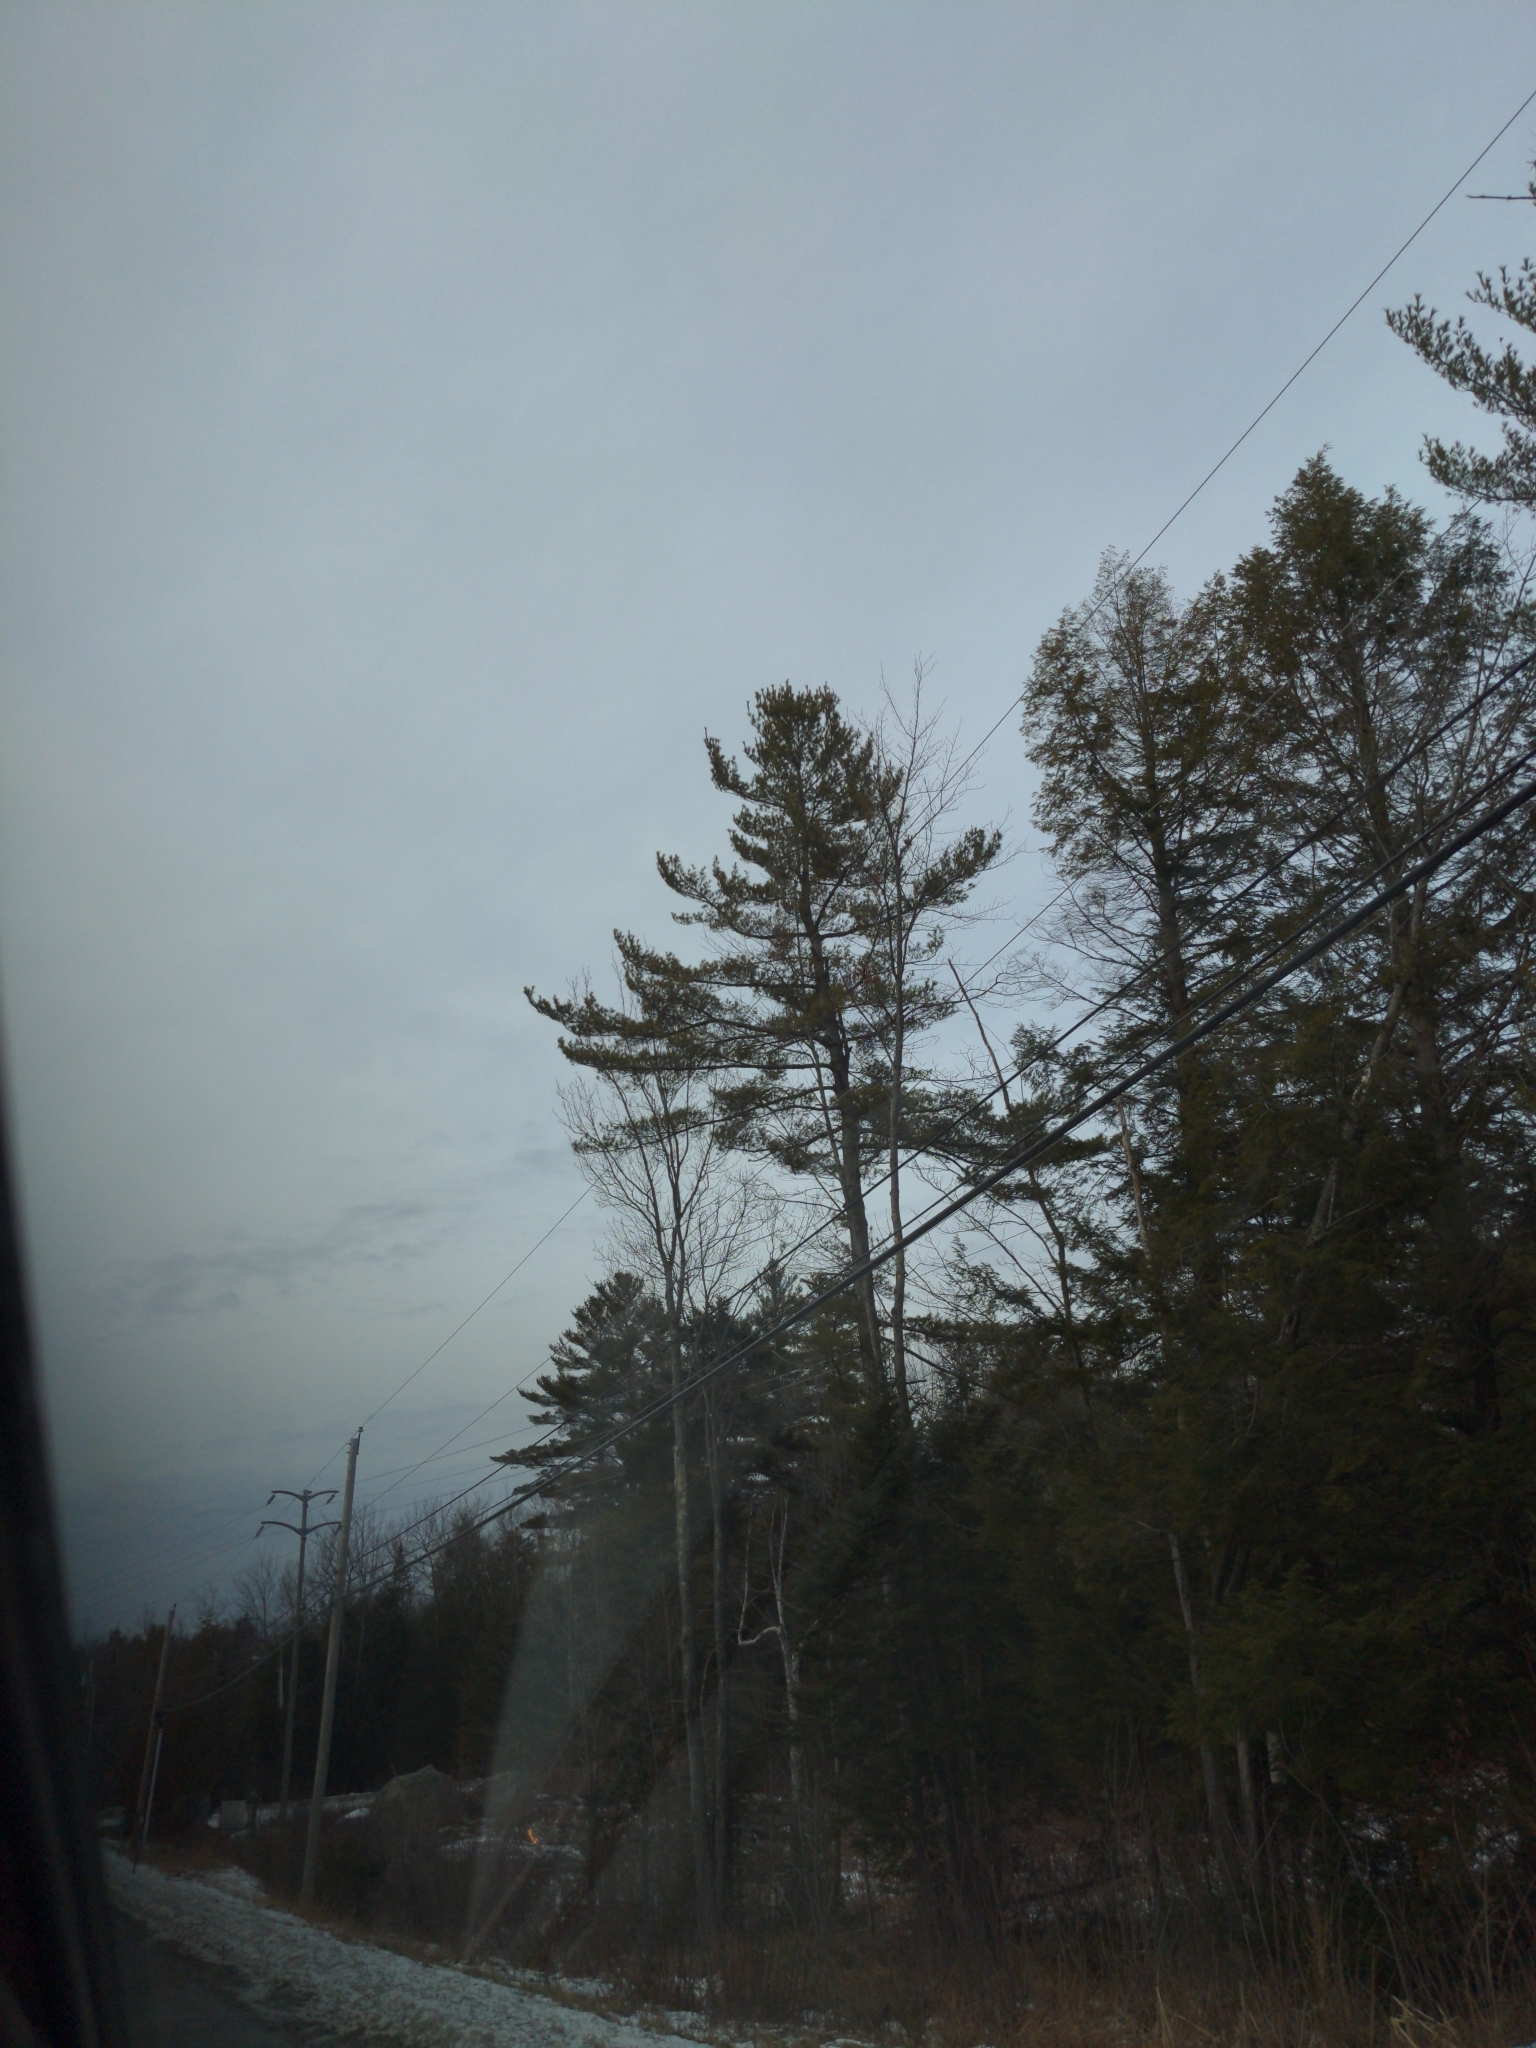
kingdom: Plantae
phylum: Tracheophyta
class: Pinopsida
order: Pinales
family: Pinaceae
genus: Pinus
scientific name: Pinus strobus
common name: Weymouth pine
